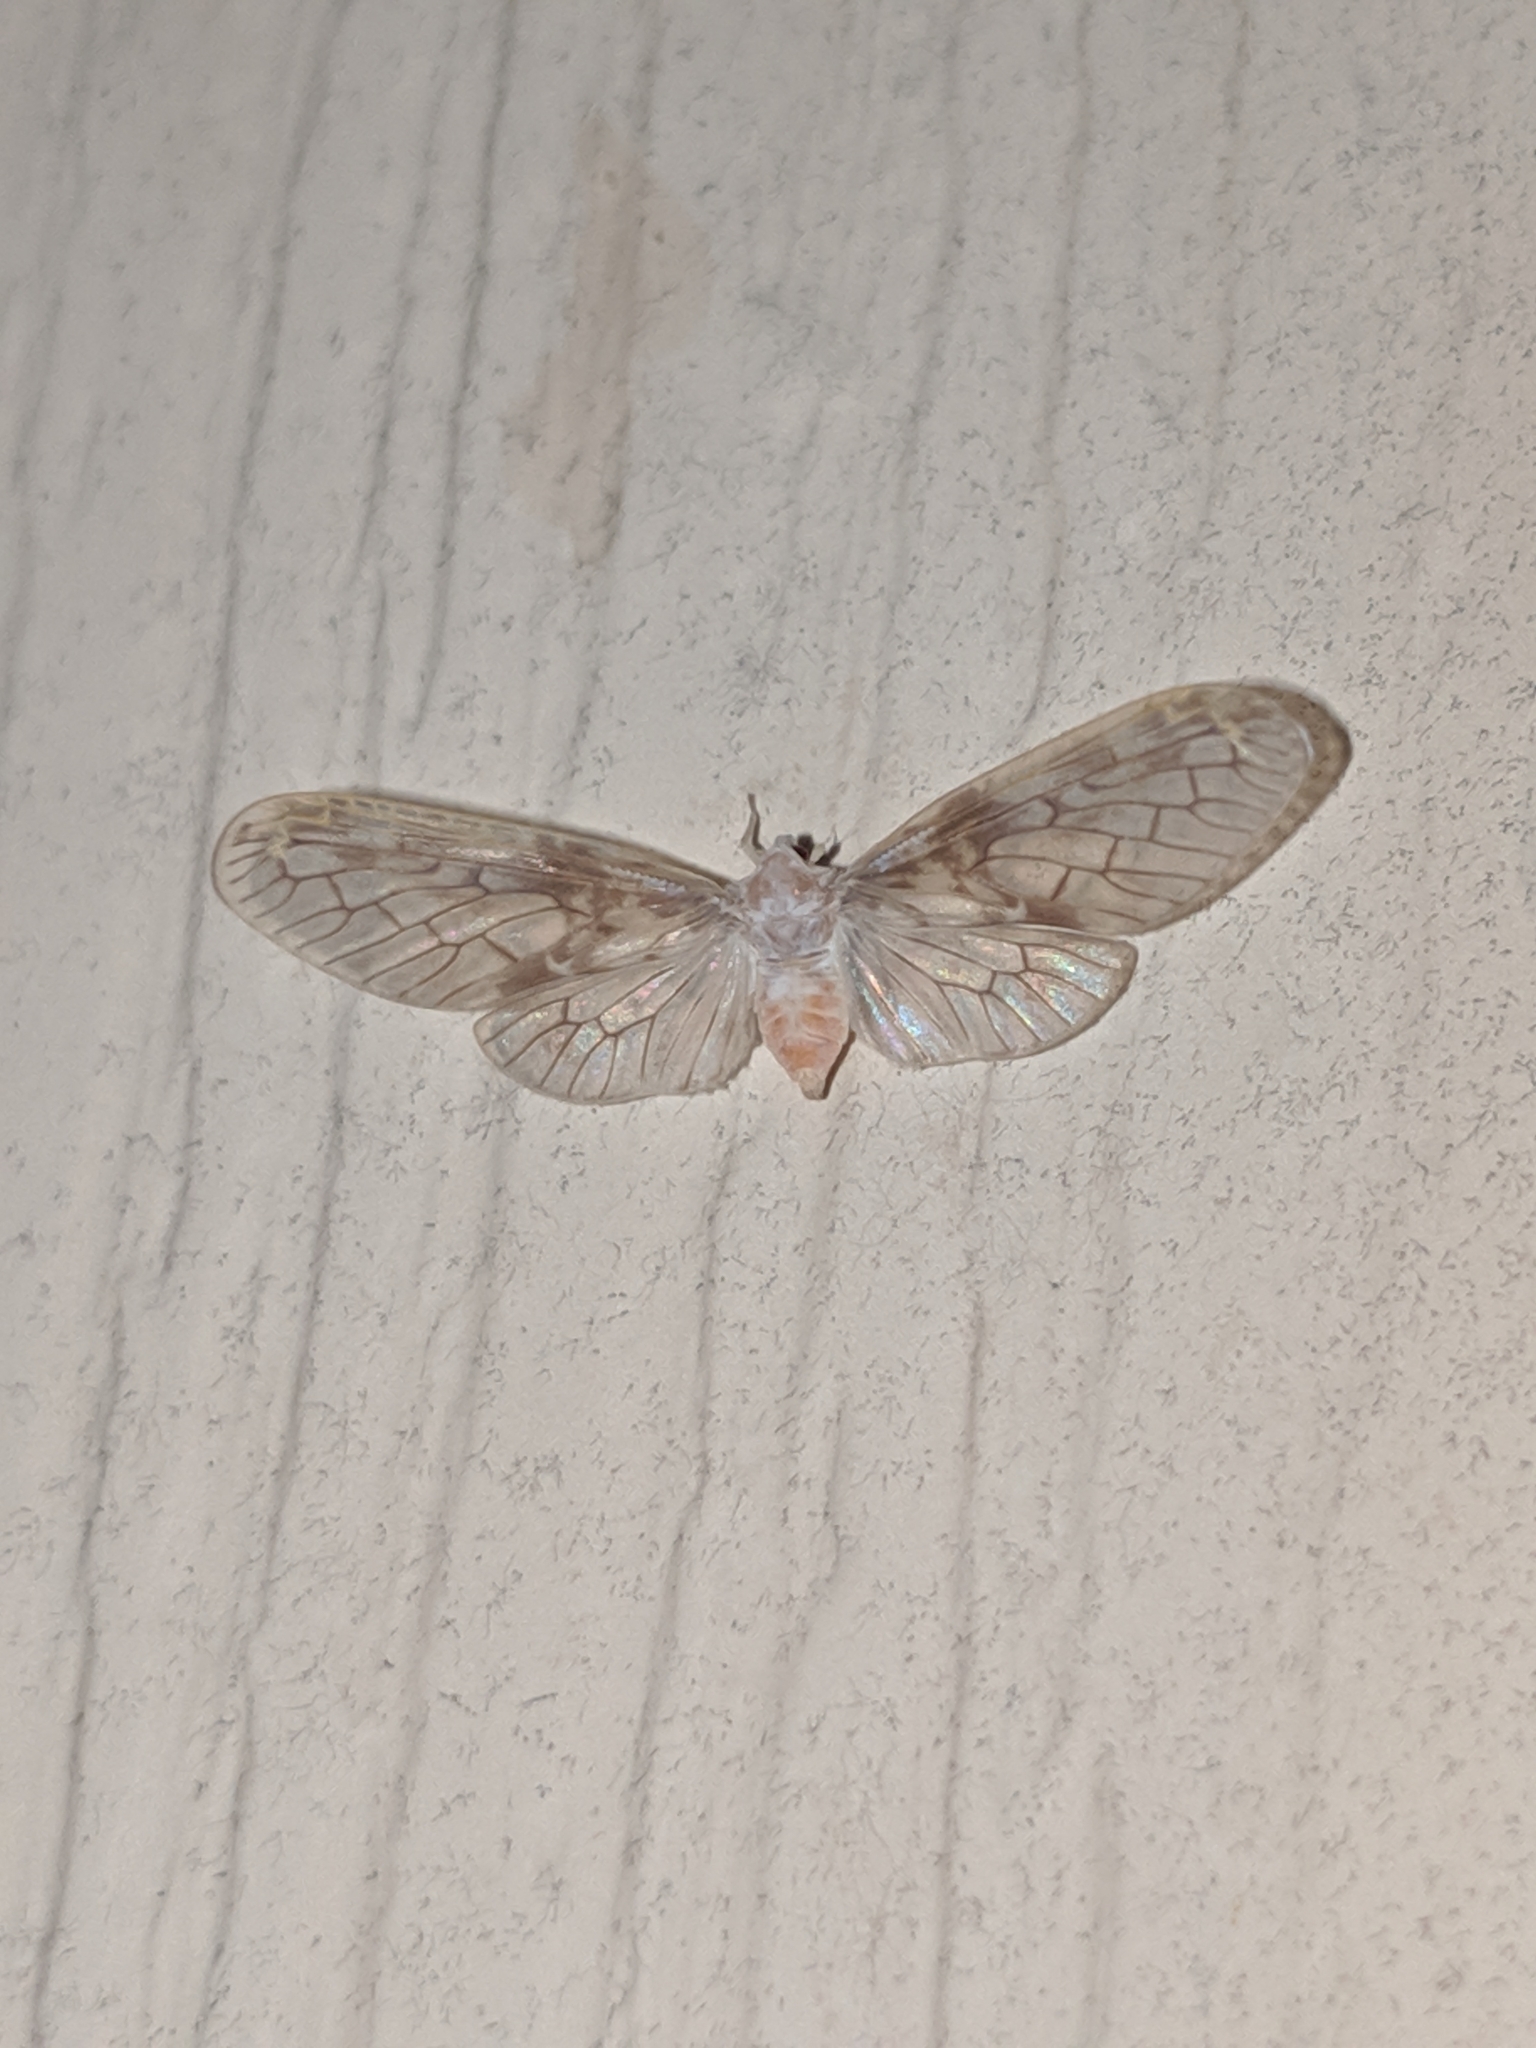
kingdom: Animalia
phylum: Arthropoda
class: Insecta
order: Hemiptera
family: Derbidae
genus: Paramysidia
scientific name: Paramysidia mississippiensis
